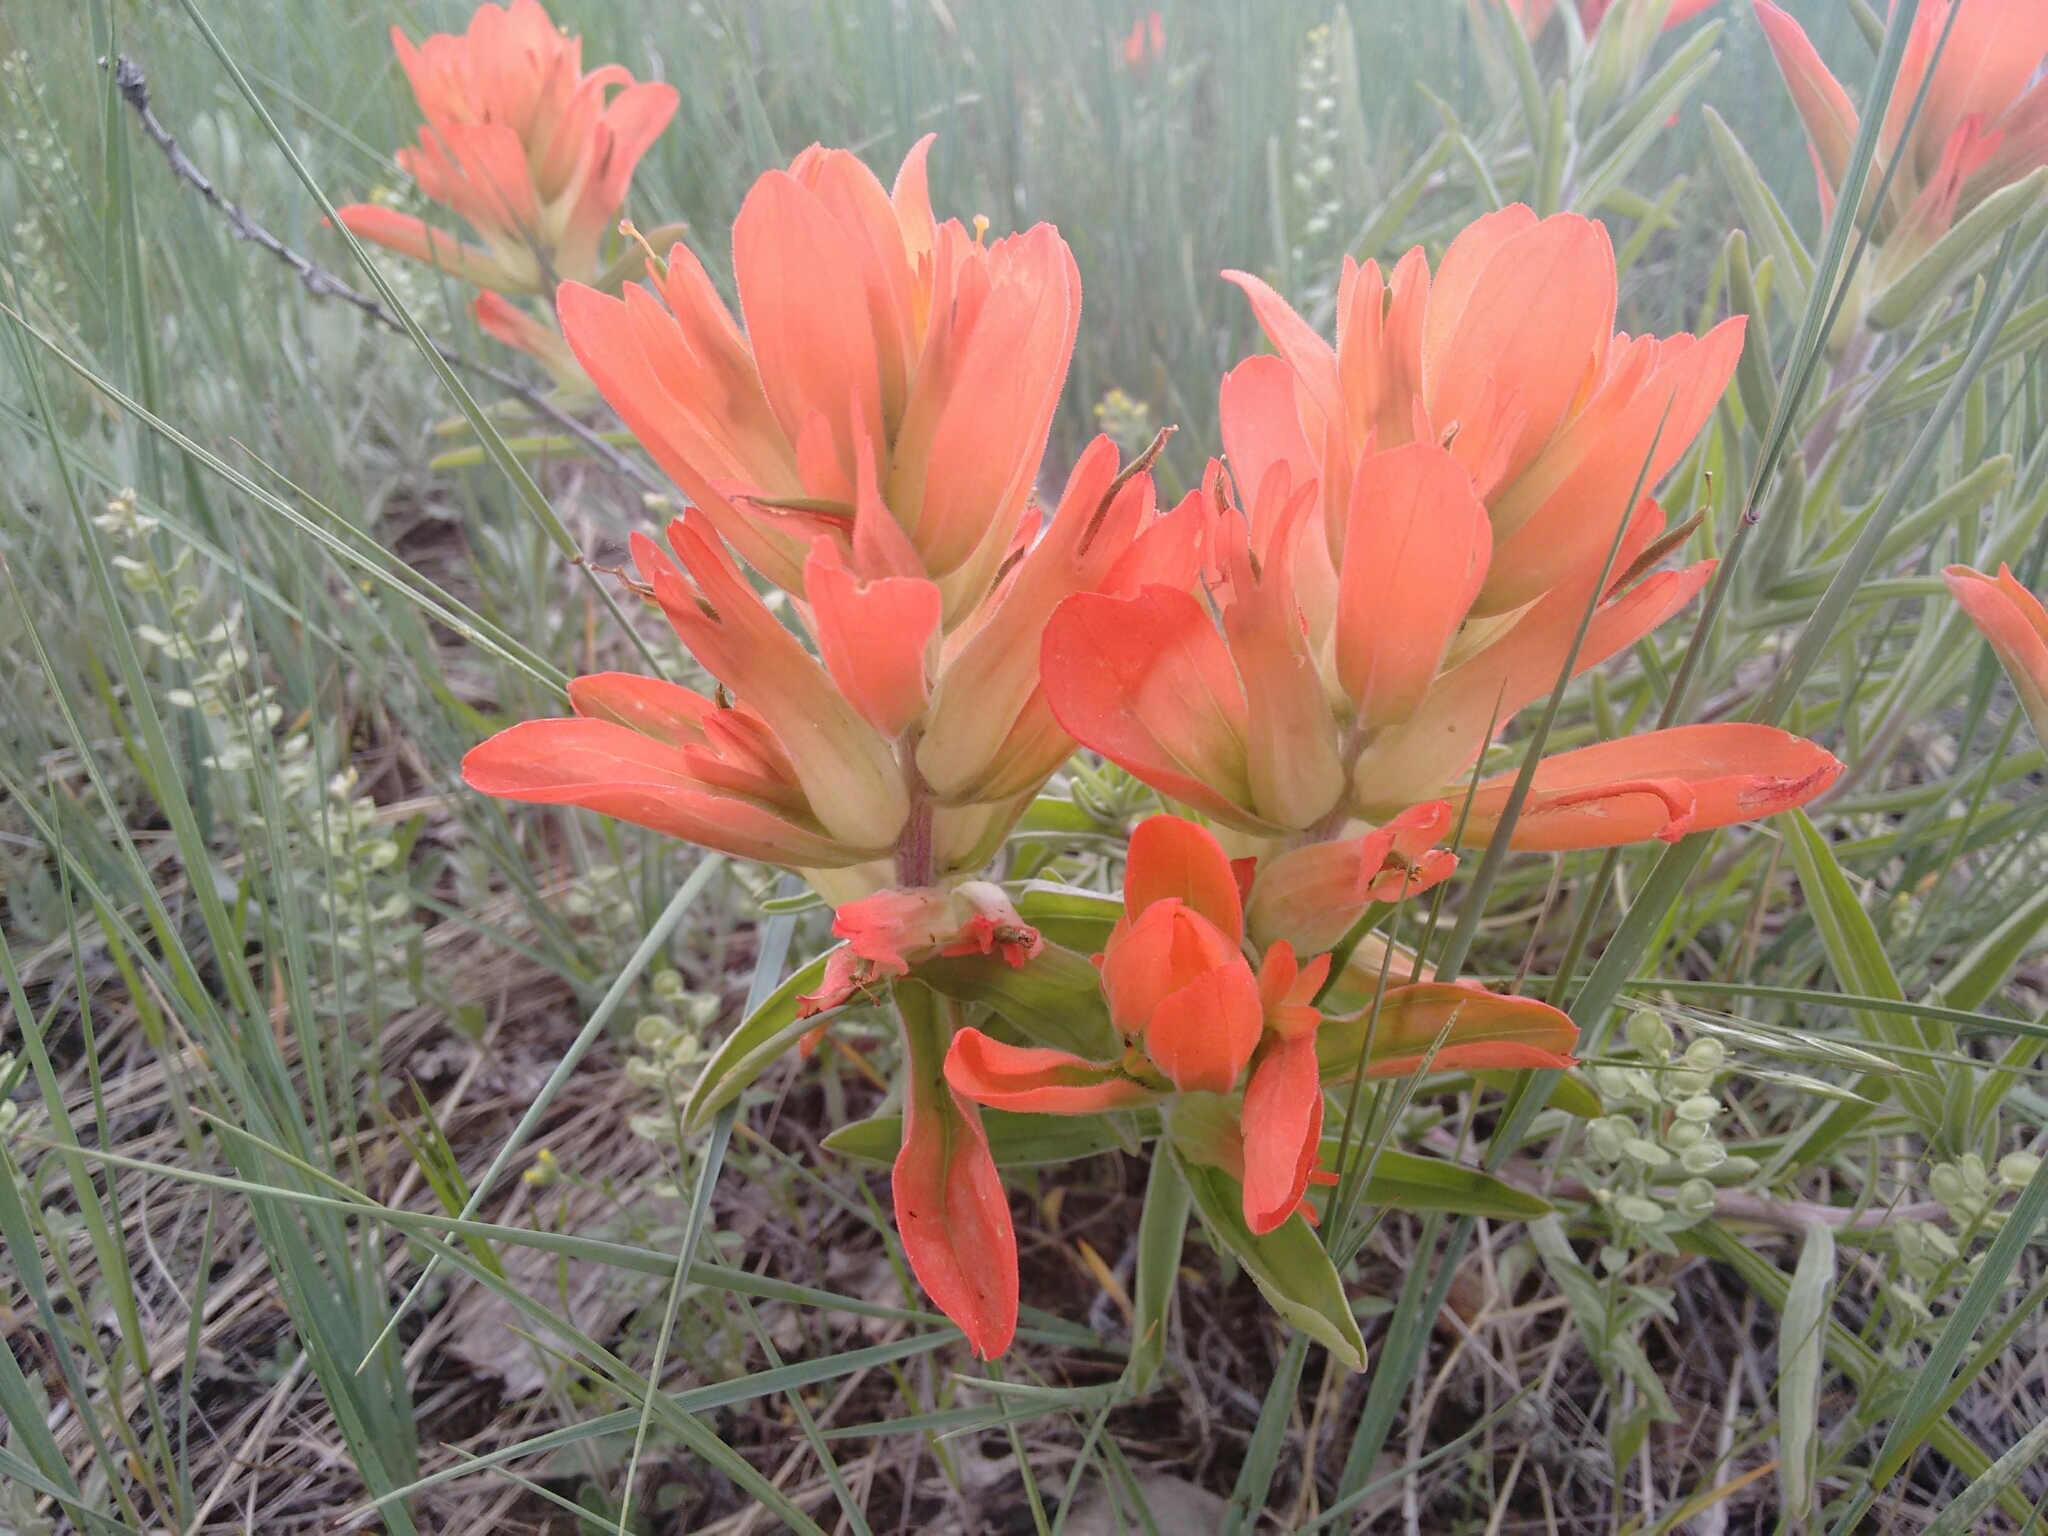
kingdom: Plantae
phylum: Tracheophyta
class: Magnoliopsida
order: Lamiales
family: Orobanchaceae
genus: Castilleja
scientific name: Castilleja integra
